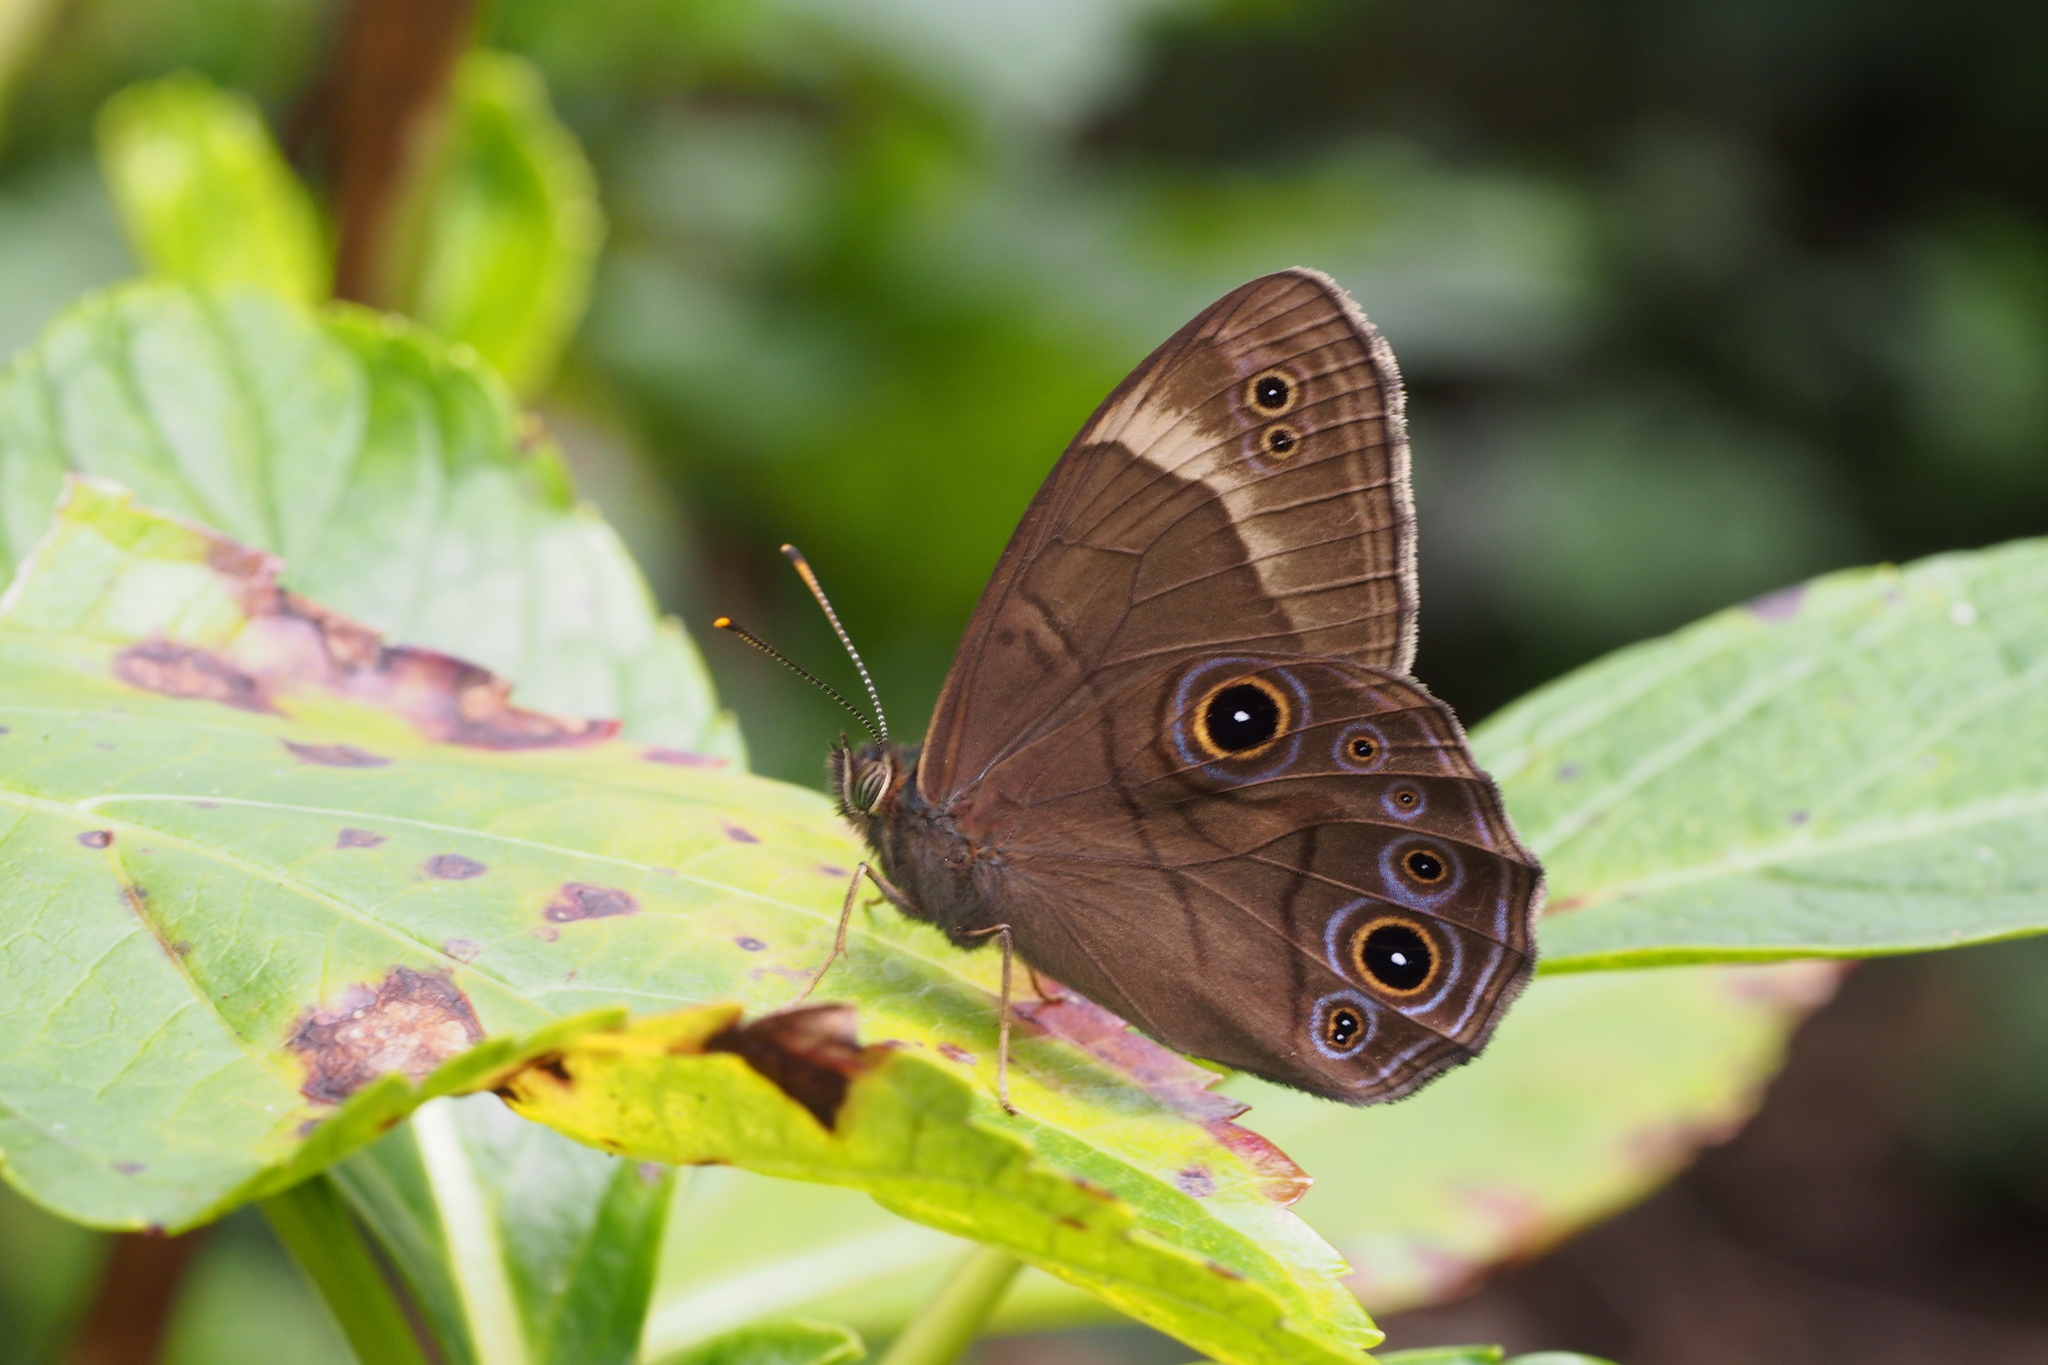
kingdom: Animalia
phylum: Arthropoda
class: Insecta
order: Lepidoptera
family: Nymphalidae
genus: Lethe
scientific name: Lethe diana
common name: Diana treebrown
